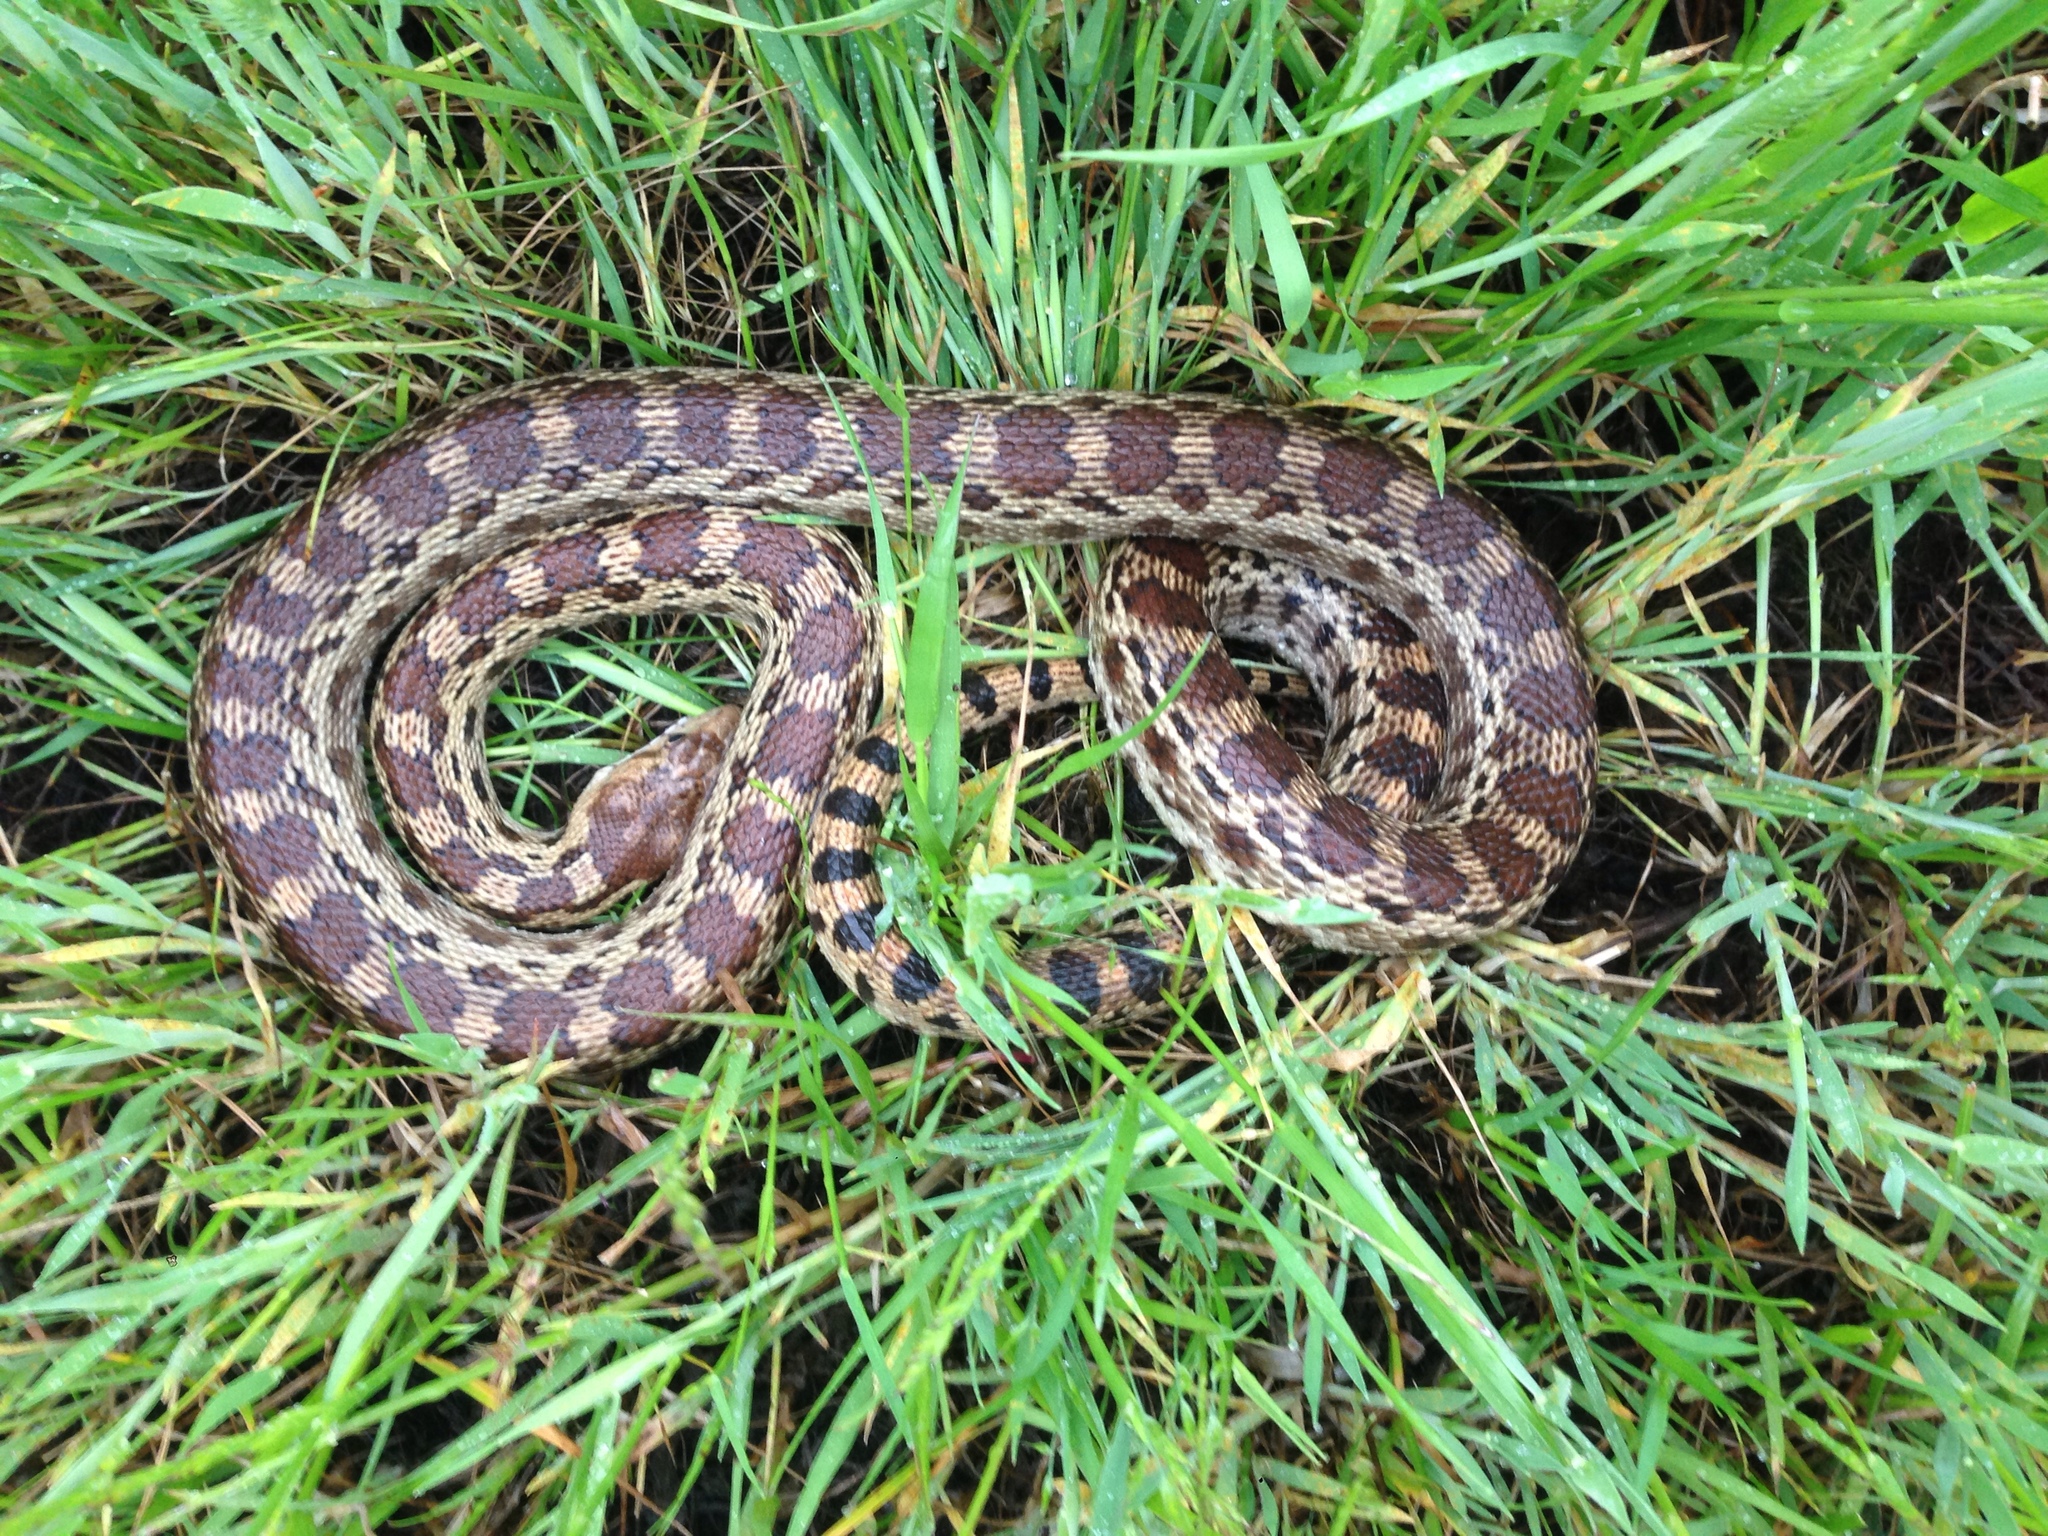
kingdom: Animalia
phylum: Chordata
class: Squamata
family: Colubridae
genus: Pituophis
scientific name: Pituophis catenifer
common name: Gopher snake
